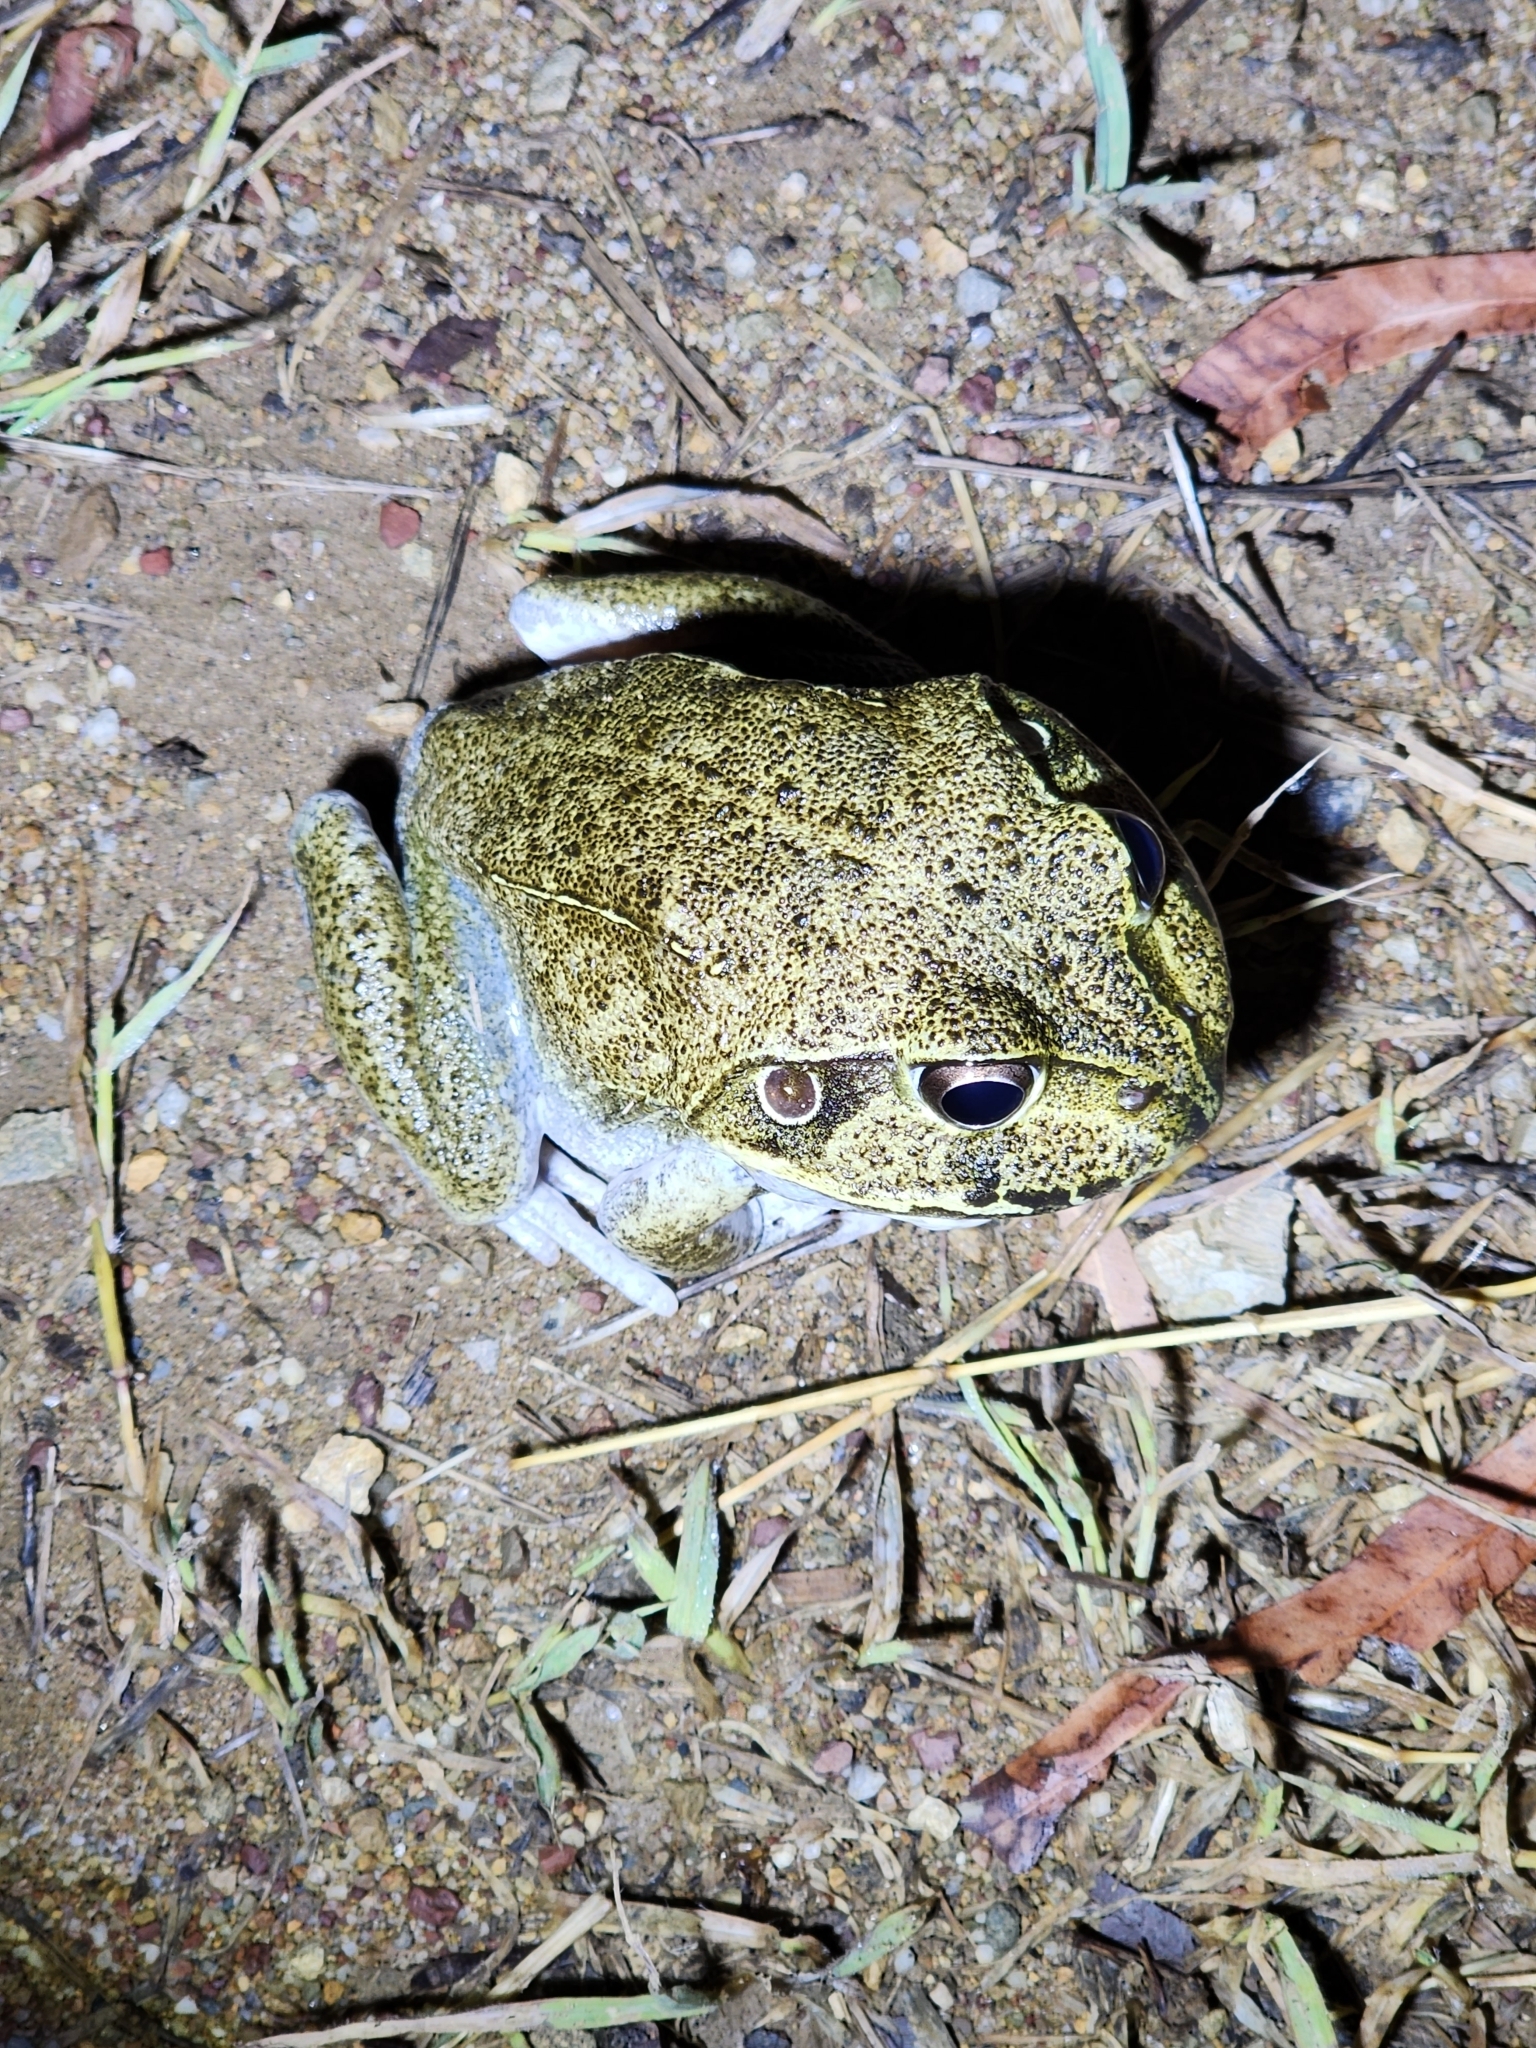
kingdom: Animalia
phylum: Chordata
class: Amphibia
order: Anura
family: Pelodryadidae
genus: Ranoidea
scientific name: Ranoidea novaehollandiae
